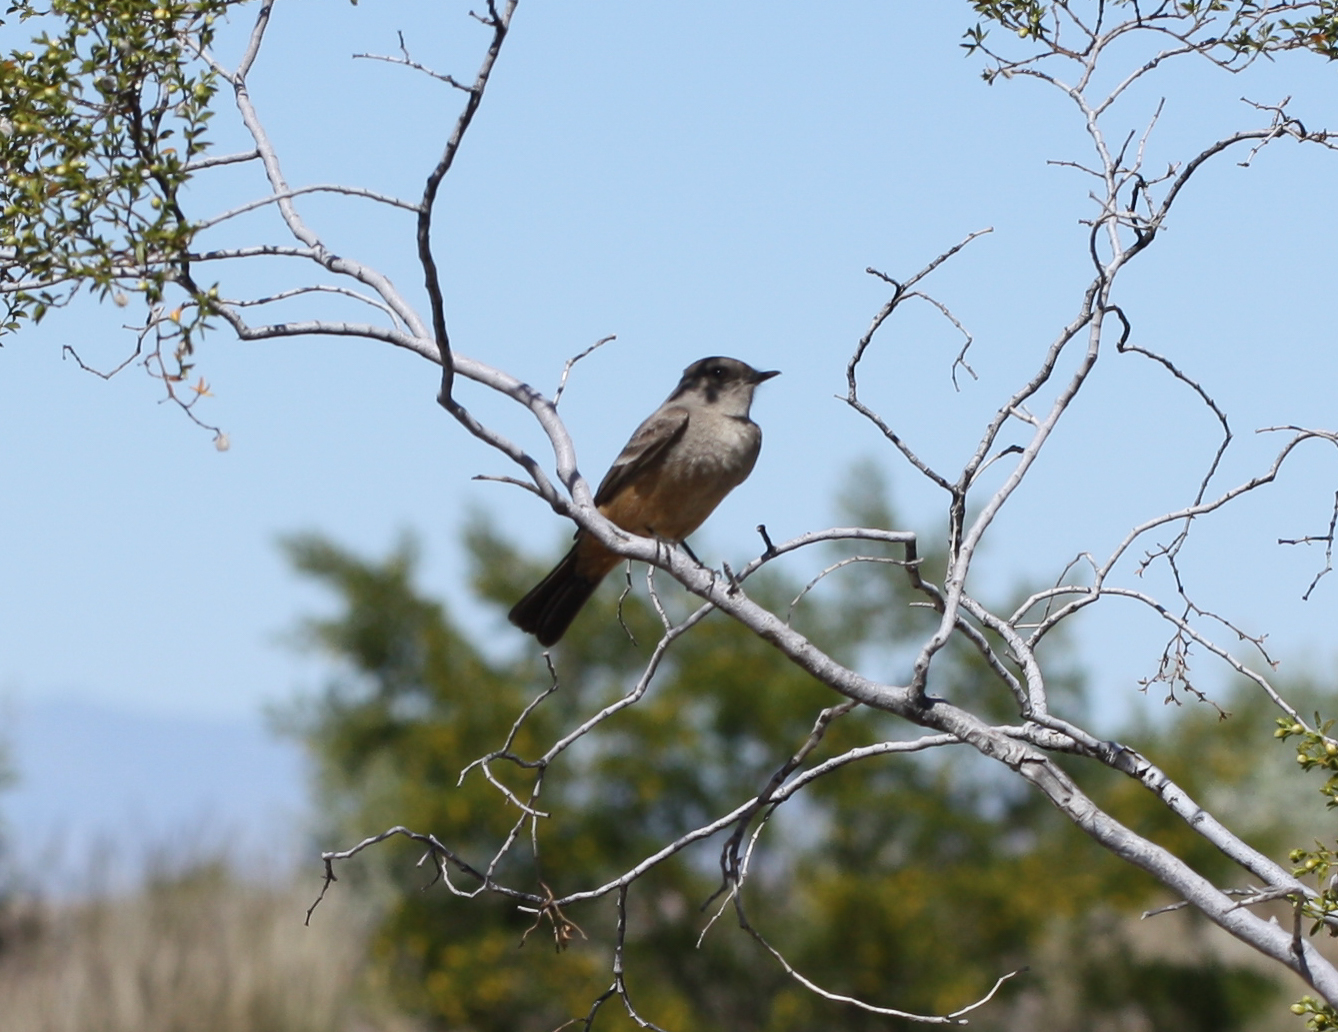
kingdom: Animalia
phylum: Chordata
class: Aves
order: Passeriformes
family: Tyrannidae
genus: Sayornis
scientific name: Sayornis saya
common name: Say's phoebe
